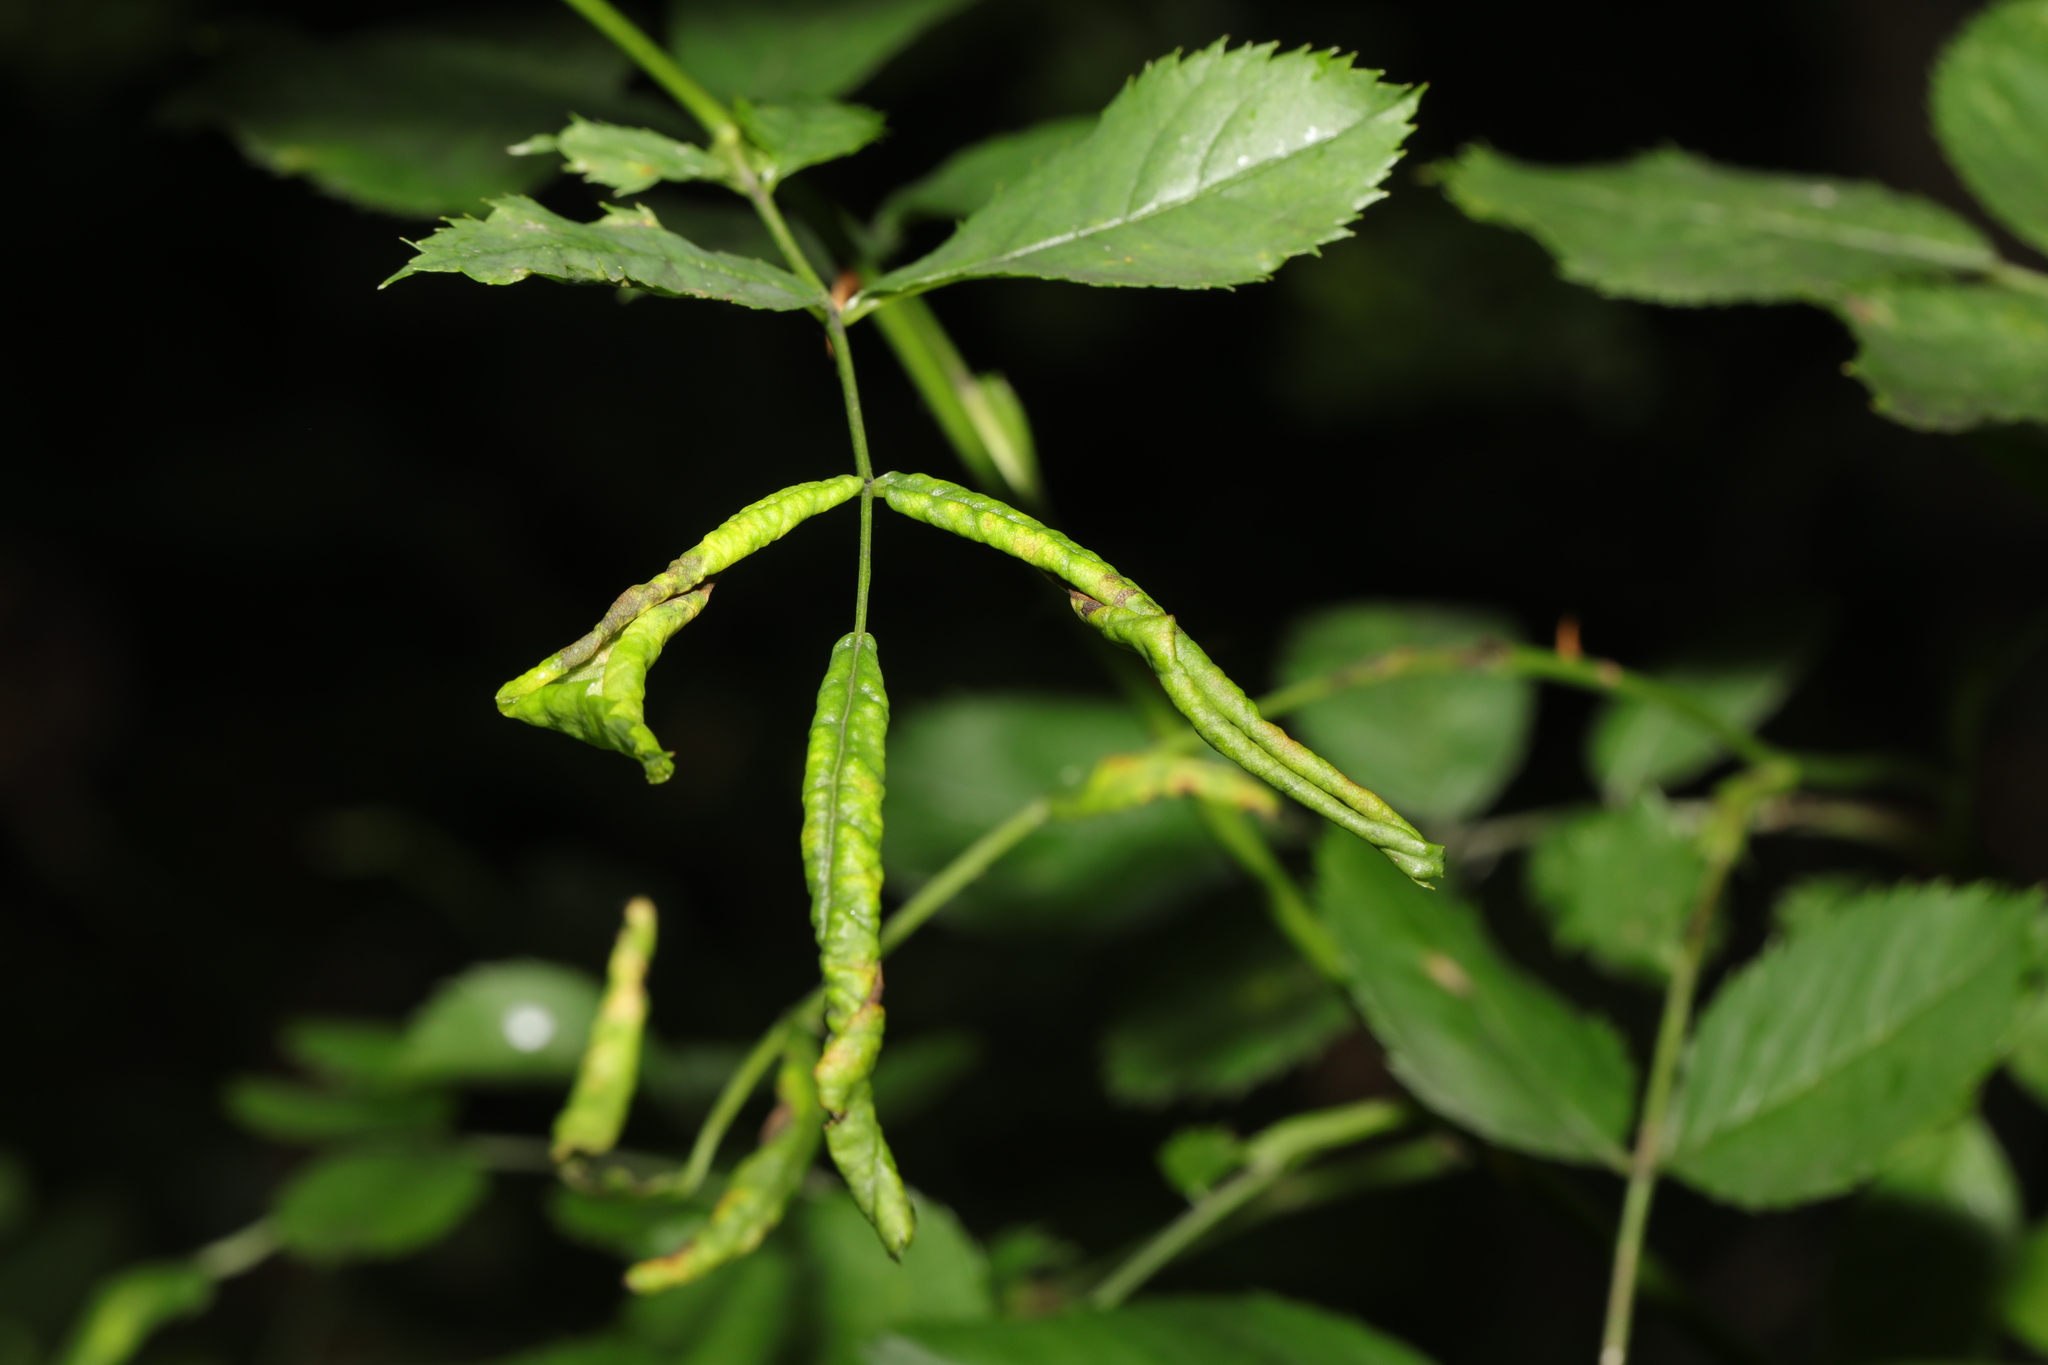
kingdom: Animalia
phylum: Arthropoda
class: Insecta
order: Hymenoptera
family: Tenthredinidae
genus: Blennocampa
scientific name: Blennocampa phyllocolpa
